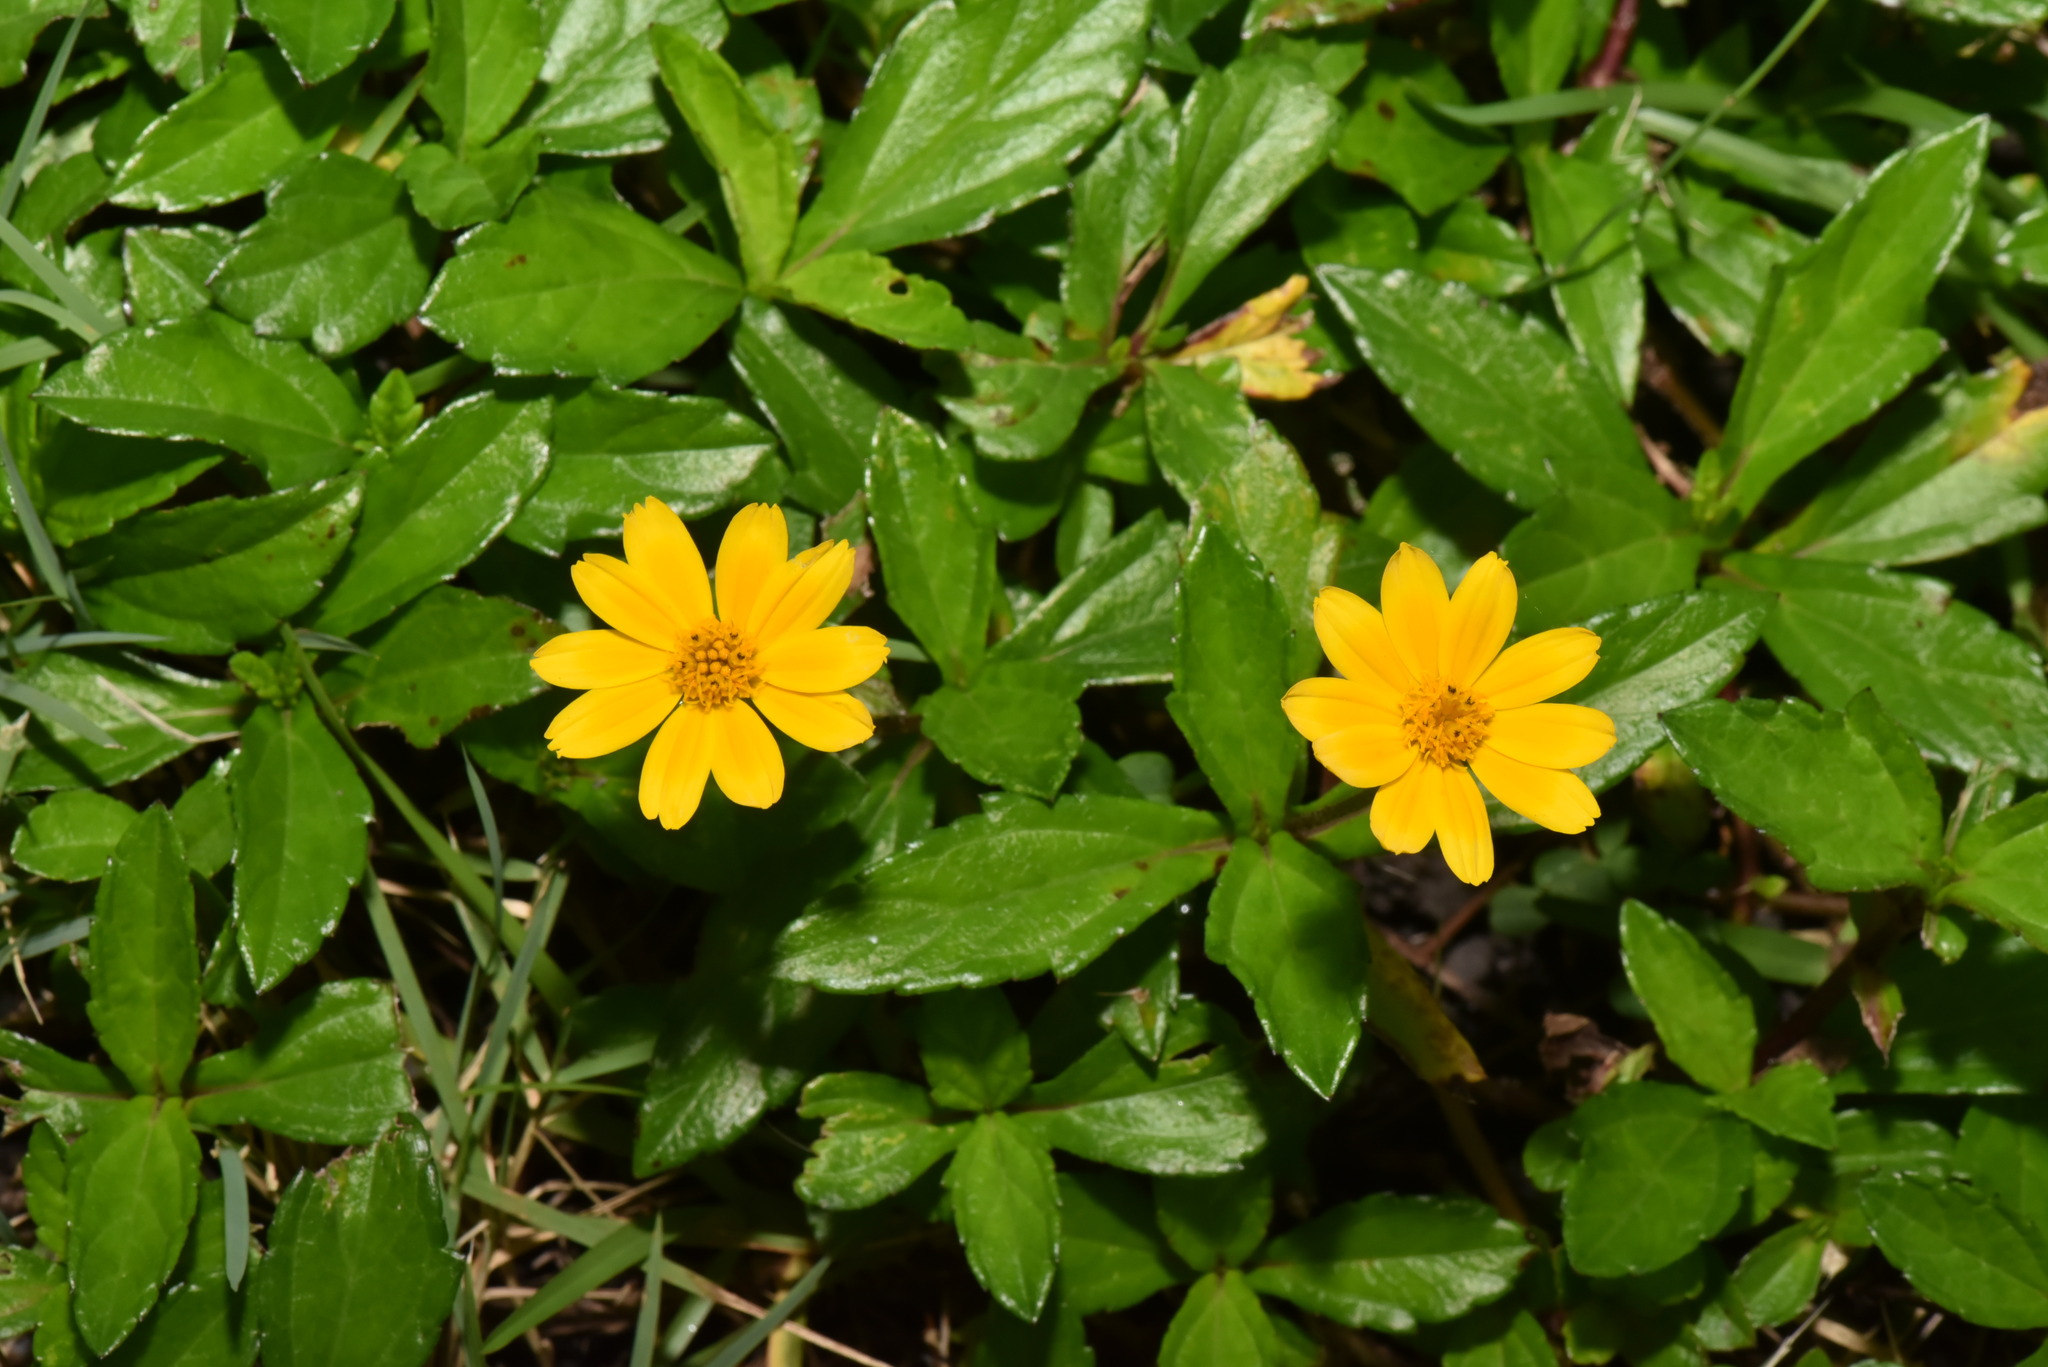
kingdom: Plantae
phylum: Tracheophyta
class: Magnoliopsida
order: Asterales
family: Asteraceae
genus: Sphagneticola
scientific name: Sphagneticola trilobata
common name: Bay biscayne creeping-oxeye
